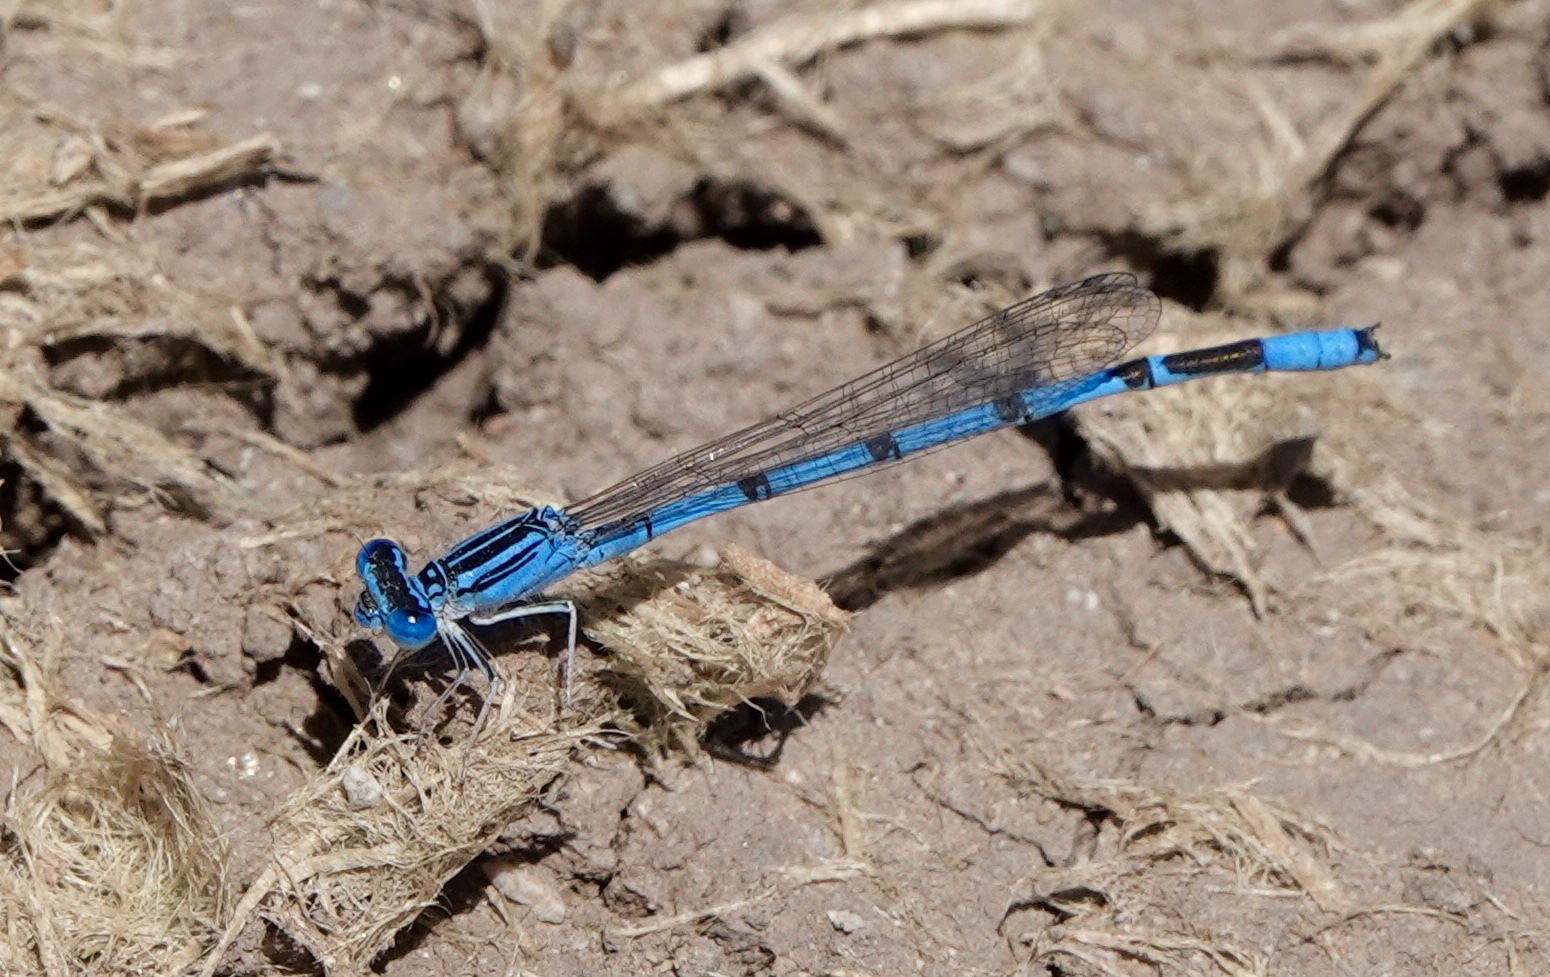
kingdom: Animalia
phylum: Arthropoda
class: Insecta
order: Odonata
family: Coenagrionidae
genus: Enallagma
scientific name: Enallagma basidens
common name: Double-striped bluet
